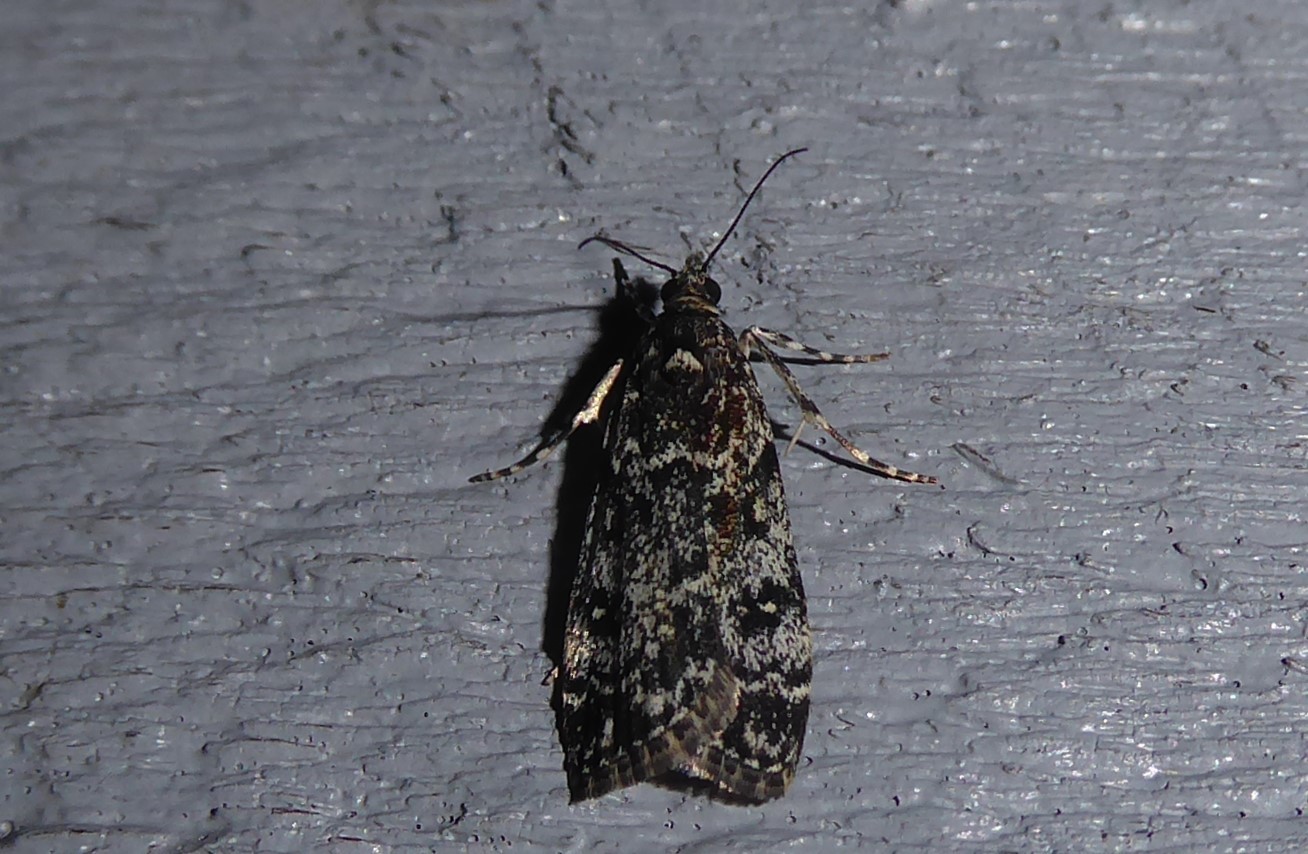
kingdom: Animalia
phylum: Arthropoda
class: Insecta
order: Lepidoptera
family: Crambidae
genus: Eudonia
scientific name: Eudonia philerga
